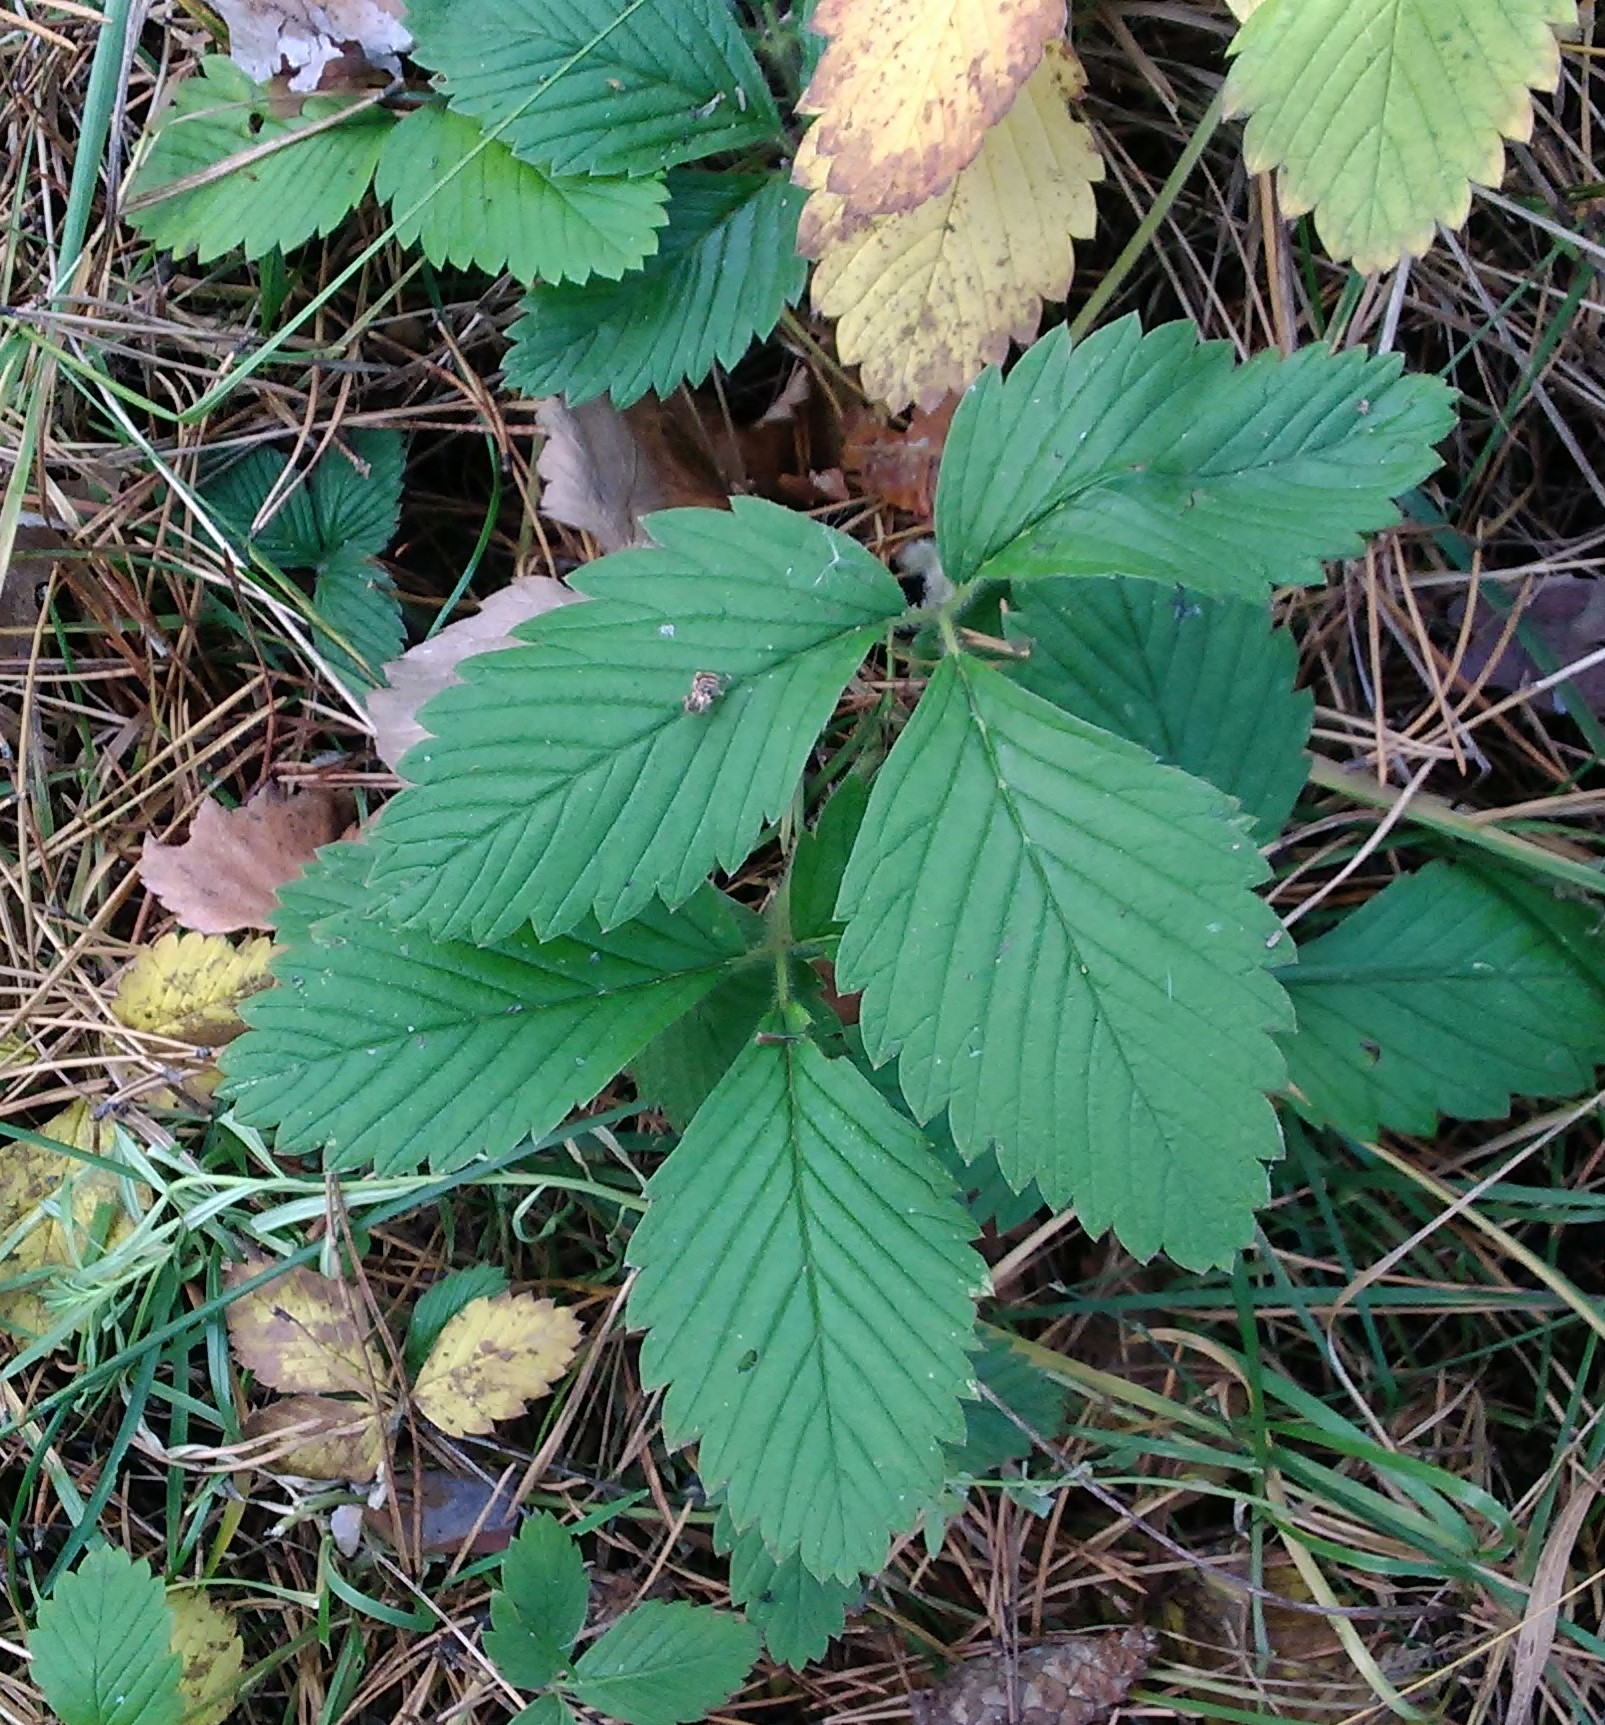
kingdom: Plantae
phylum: Tracheophyta
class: Magnoliopsida
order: Rosales
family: Rosaceae
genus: Fragaria
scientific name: Fragaria moschata
